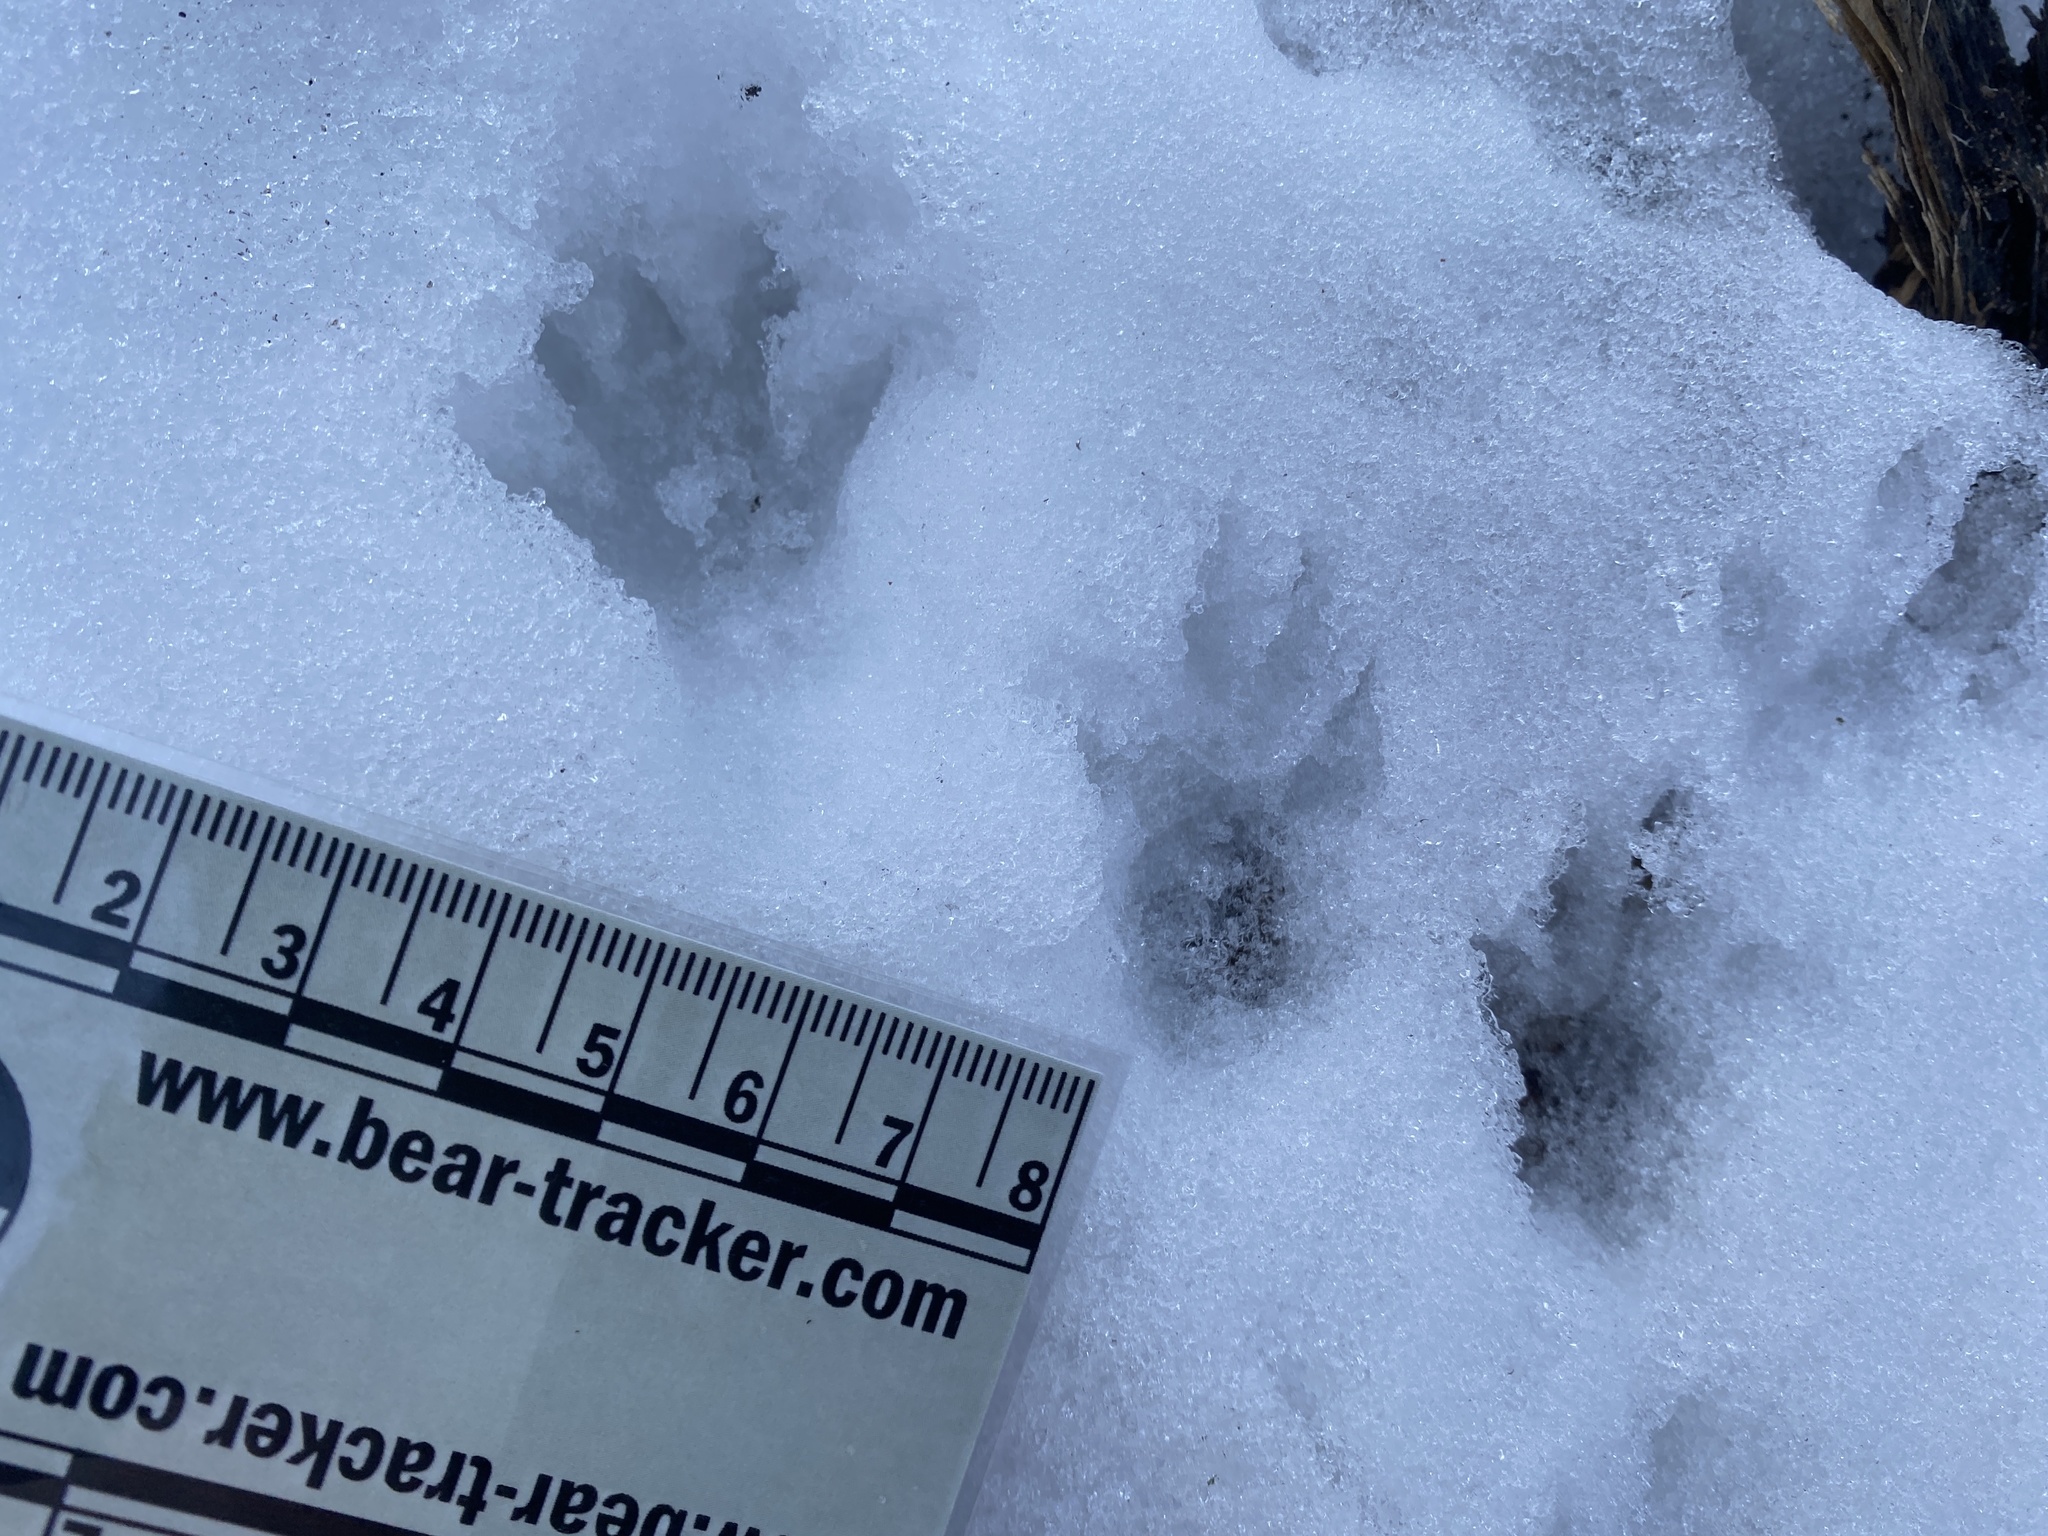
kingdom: Animalia
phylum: Chordata
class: Mammalia
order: Carnivora
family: Procyonidae
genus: Procyon
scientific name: Procyon lotor
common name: Raccoon
